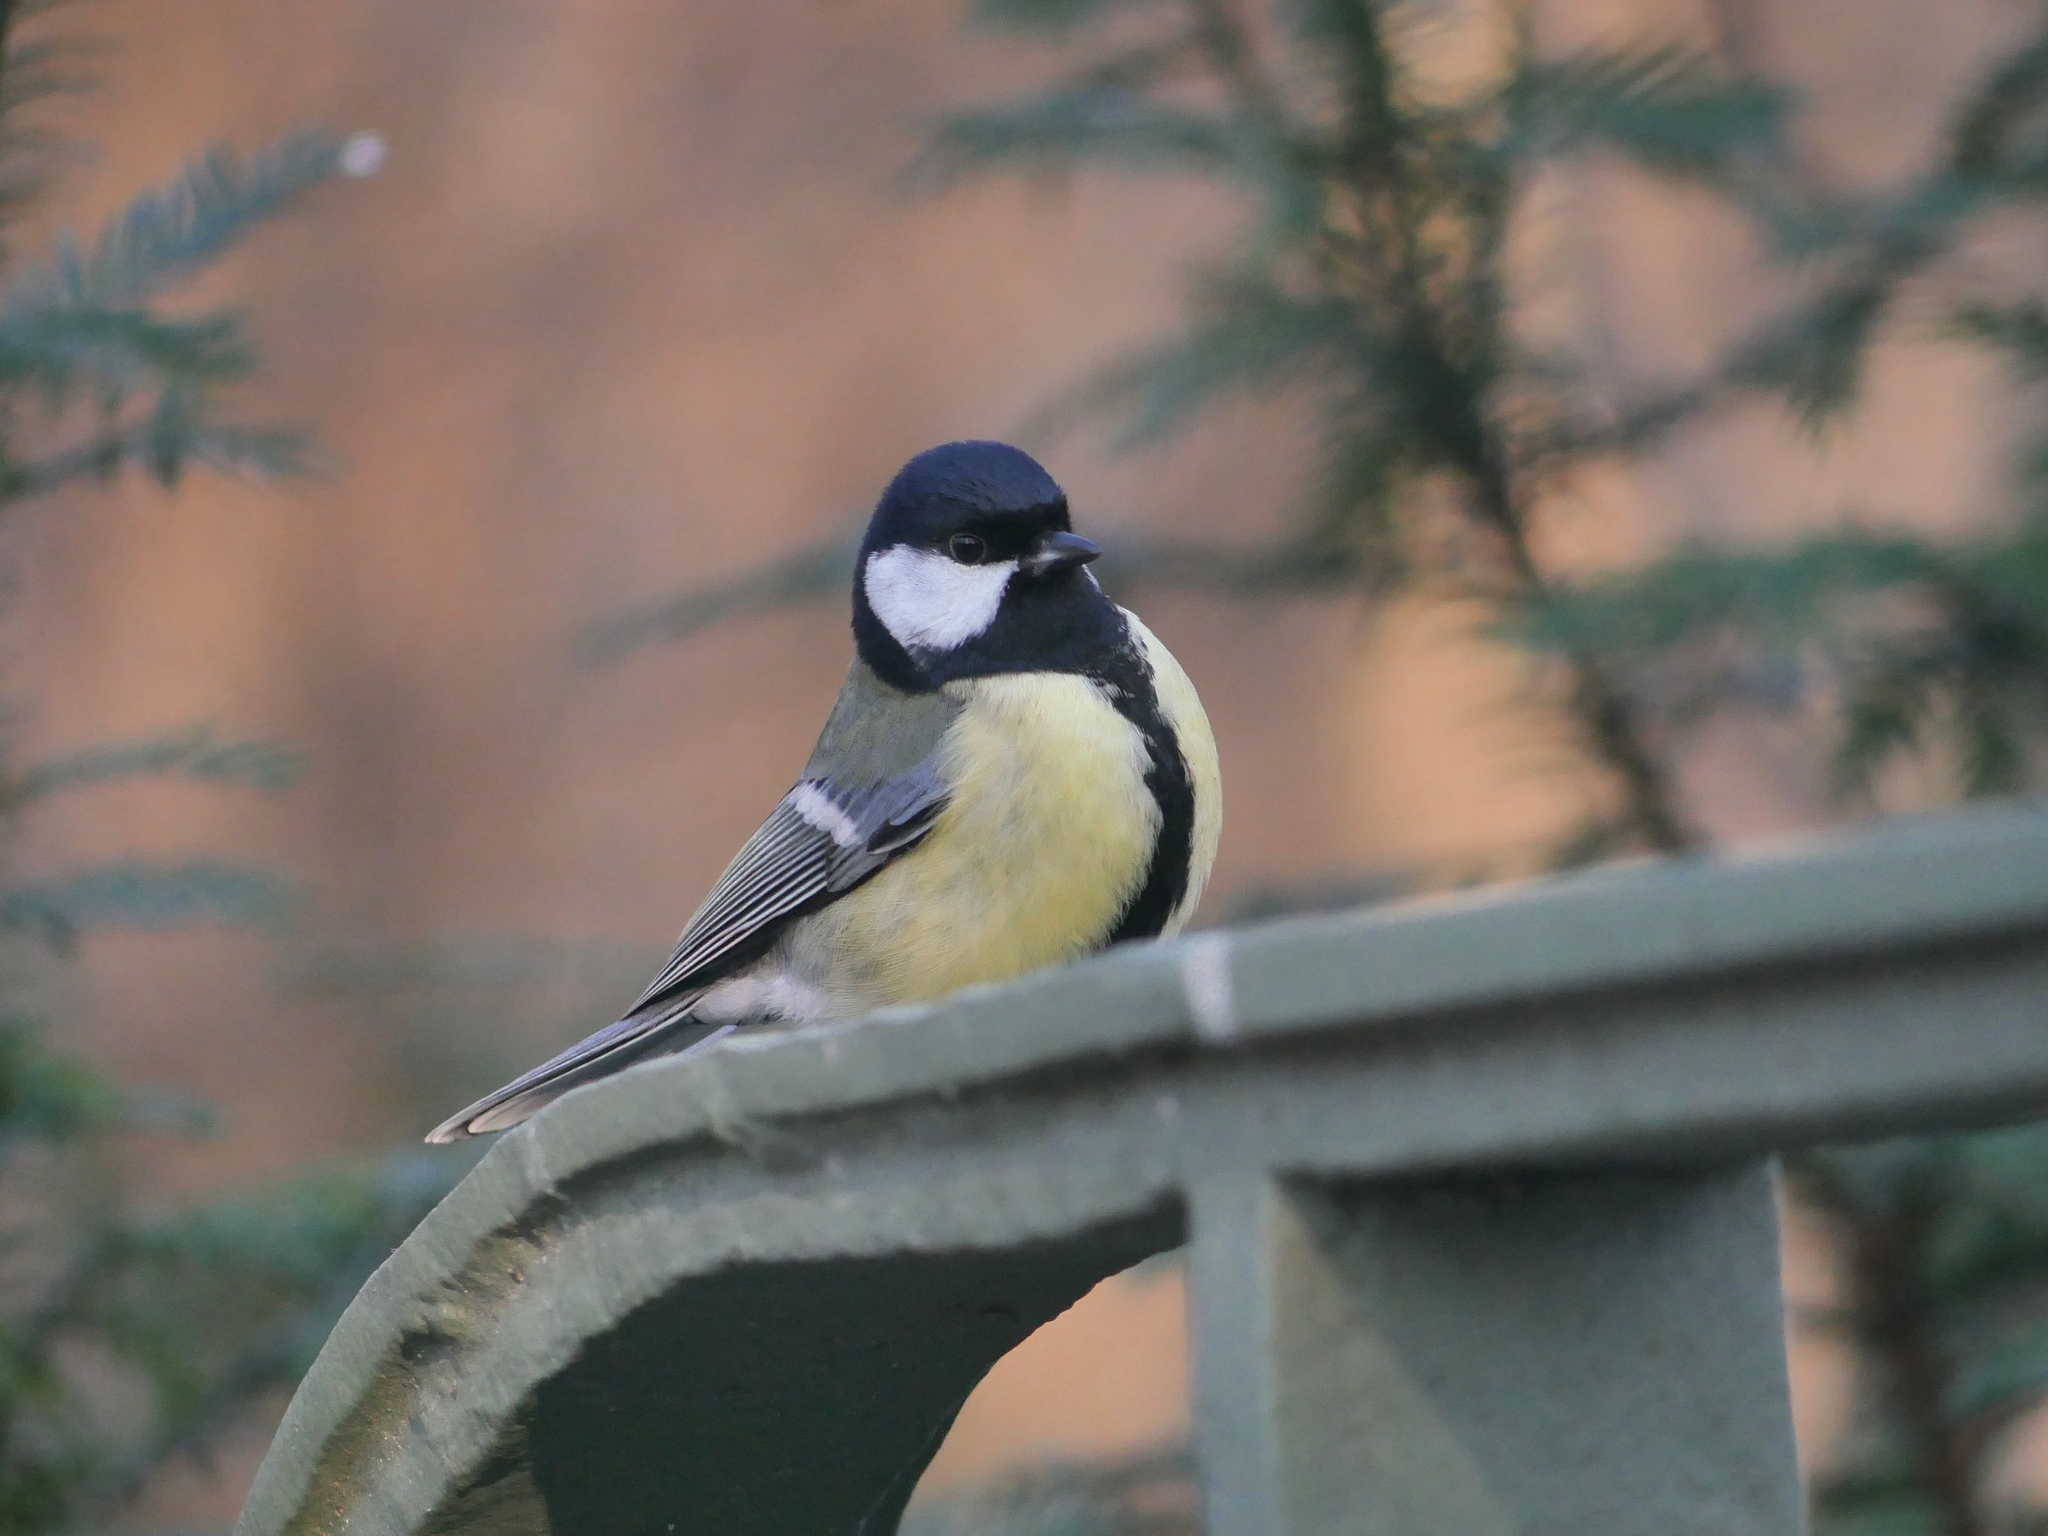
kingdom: Animalia
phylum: Chordata
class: Aves
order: Passeriformes
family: Paridae
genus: Parus
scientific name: Parus major
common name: Great tit
